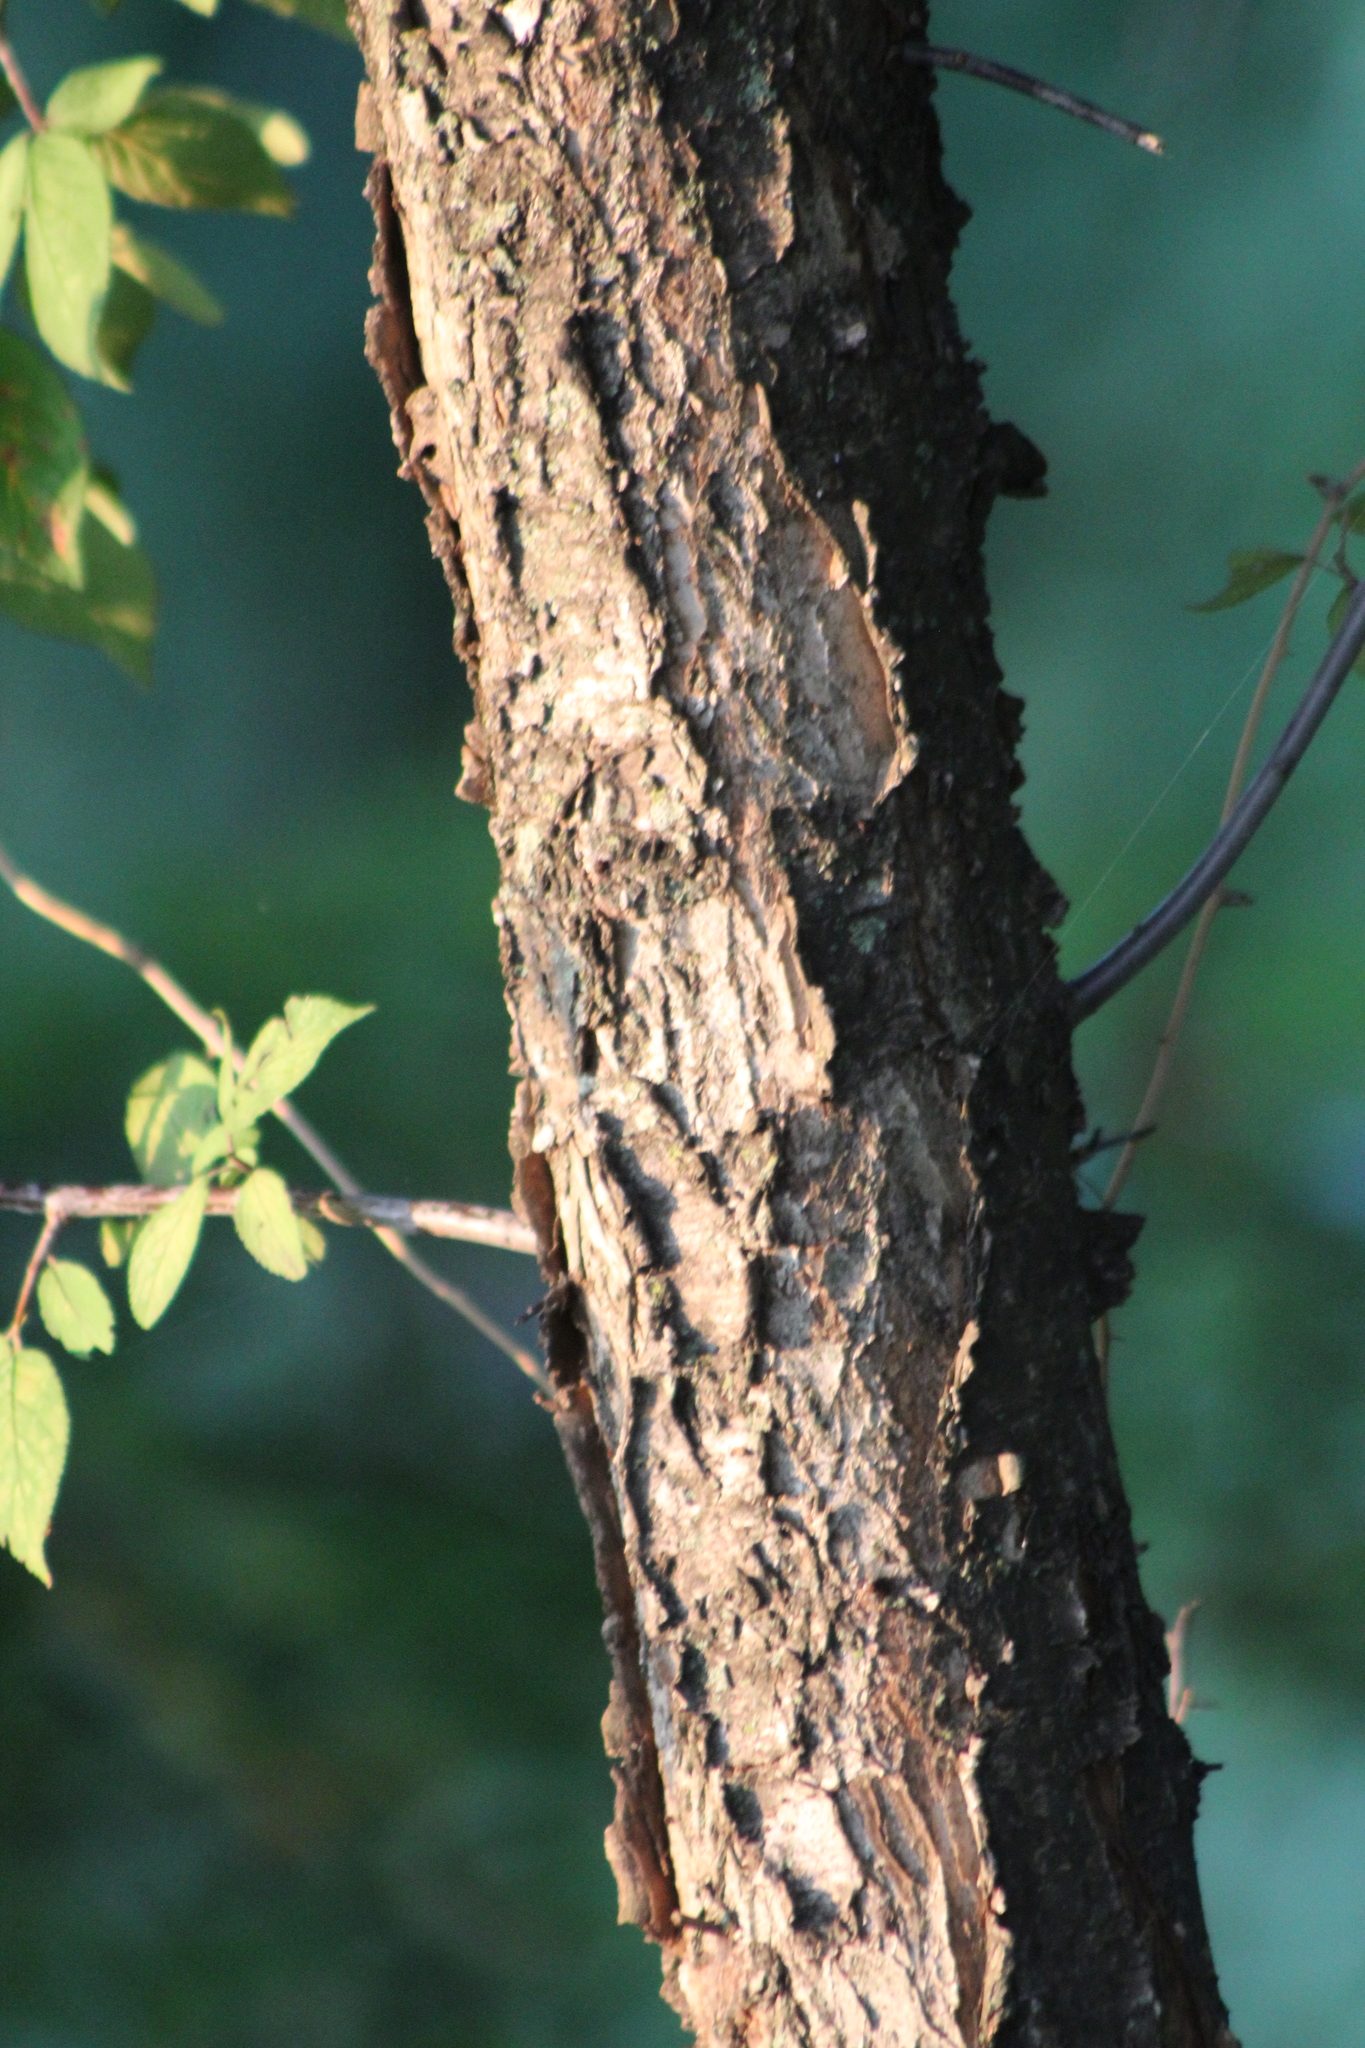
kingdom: Plantae
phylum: Tracheophyta
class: Magnoliopsida
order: Rosales
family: Rosaceae
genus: Prunus
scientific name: Prunus mexicana
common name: Mexican plum
